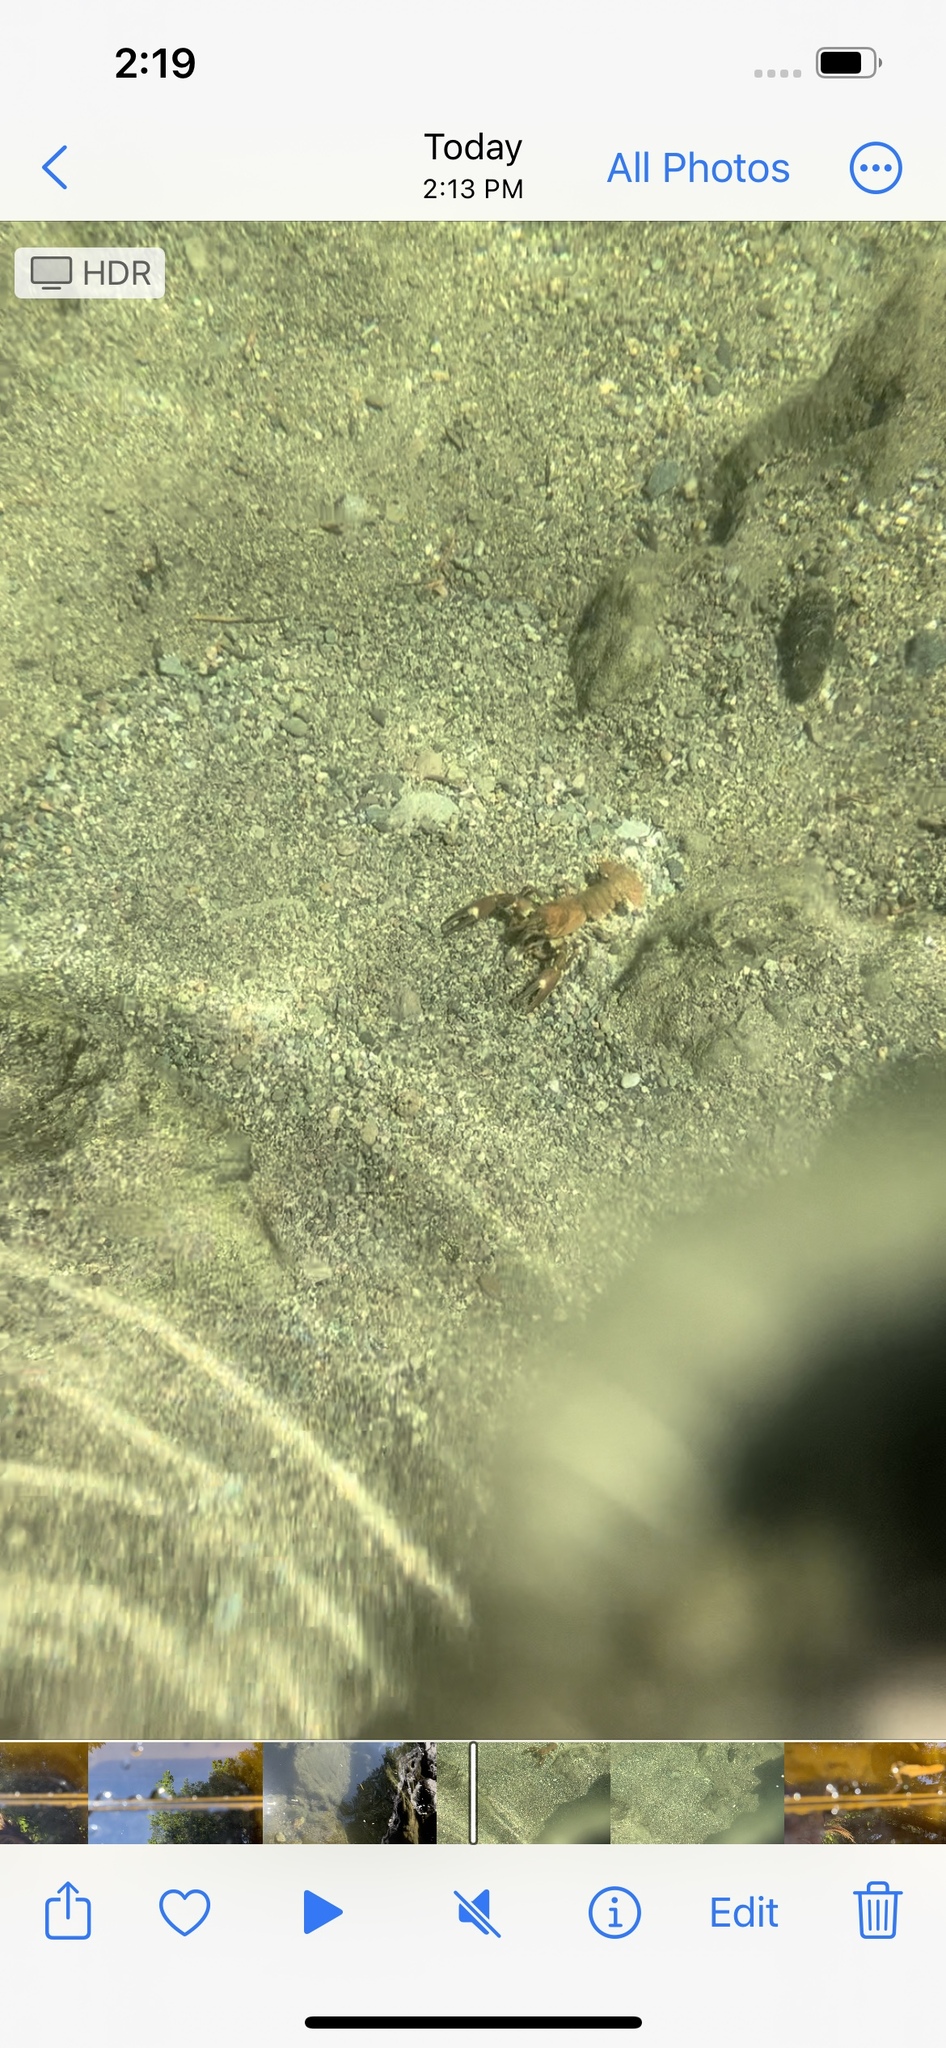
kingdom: Animalia
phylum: Arthropoda
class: Malacostraca
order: Decapoda
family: Astacidae
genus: Pacifastacus
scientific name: Pacifastacus leniusculus
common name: Signal crayfish
